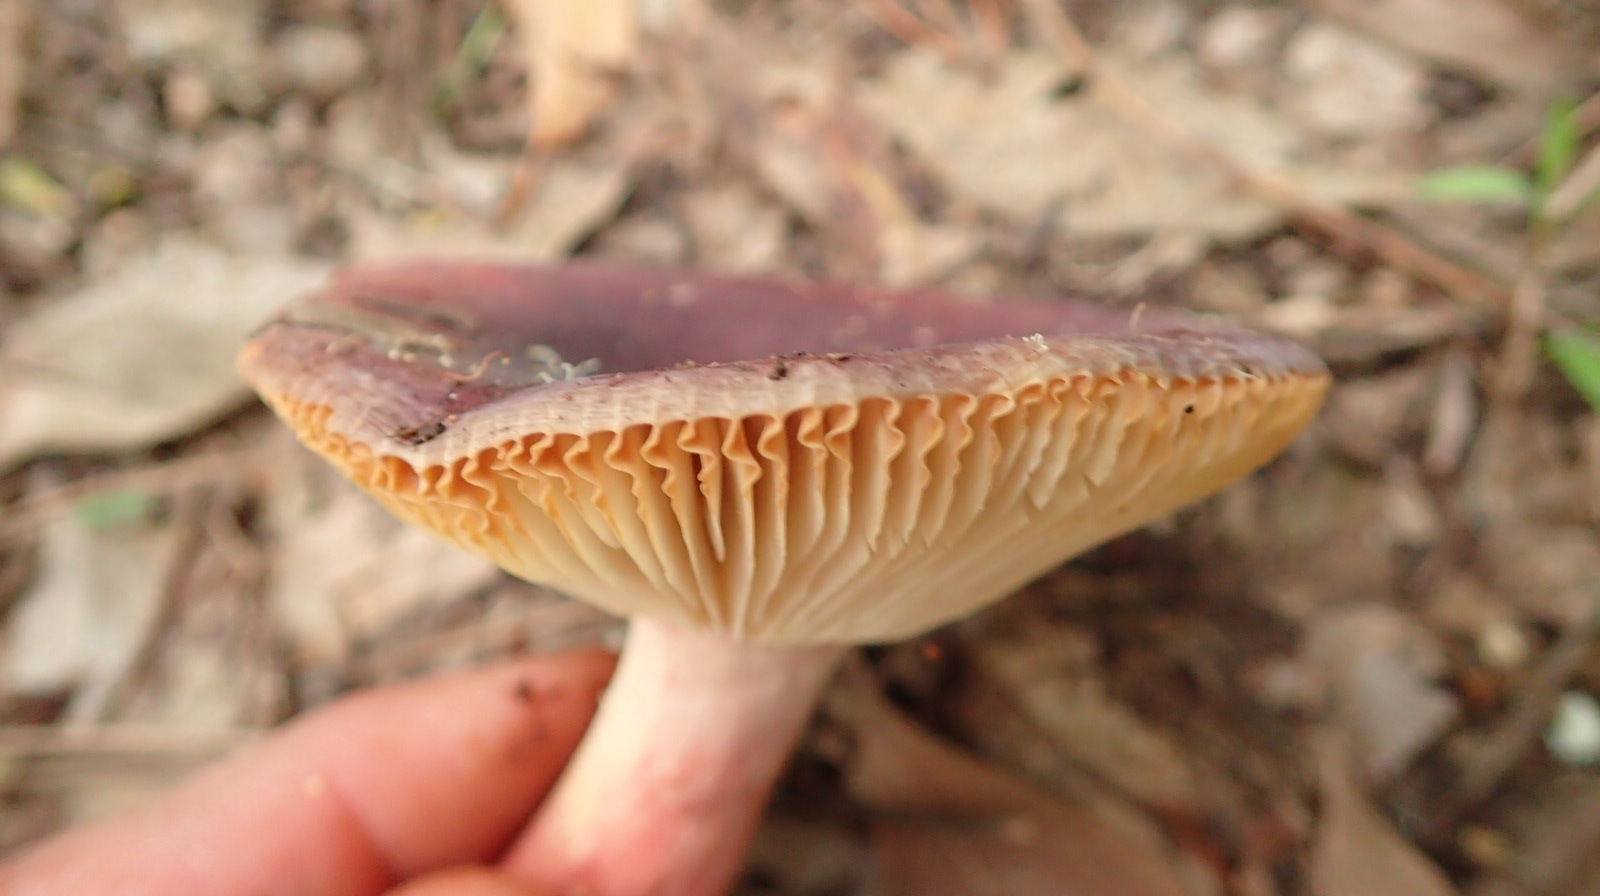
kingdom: Fungi
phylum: Basidiomycota
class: Agaricomycetes
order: Russulales
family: Russulaceae
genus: Russula
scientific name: Russula sardonia
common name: Primrose brittlegill
